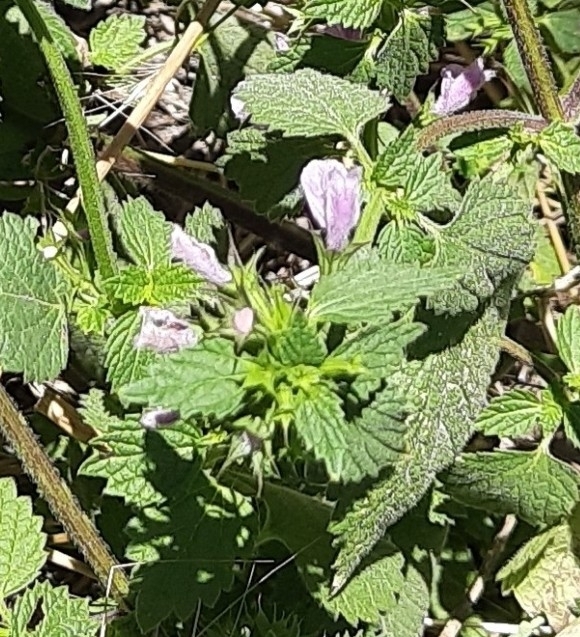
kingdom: Plantae
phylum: Tracheophyta
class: Magnoliopsida
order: Lamiales
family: Lamiaceae
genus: Ballota
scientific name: Ballota nigra
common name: Black horehound
